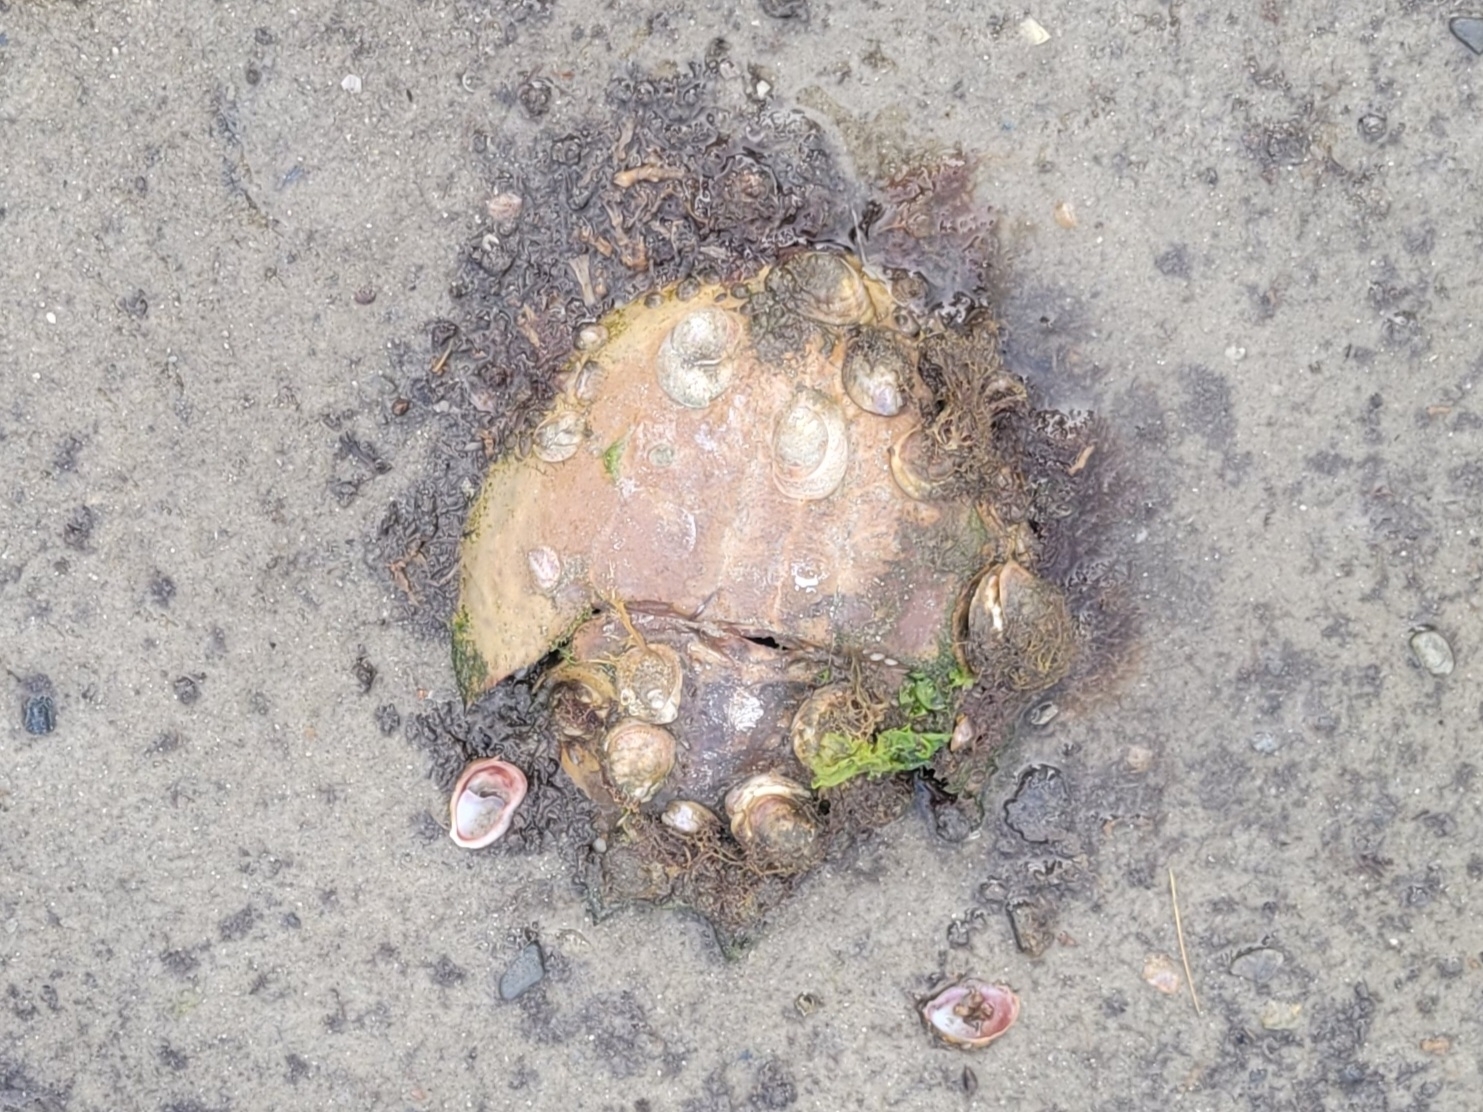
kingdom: Animalia
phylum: Arthropoda
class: Merostomata
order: Xiphosurida
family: Limulidae
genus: Limulus
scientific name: Limulus polyphemus
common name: Horseshoe crab
